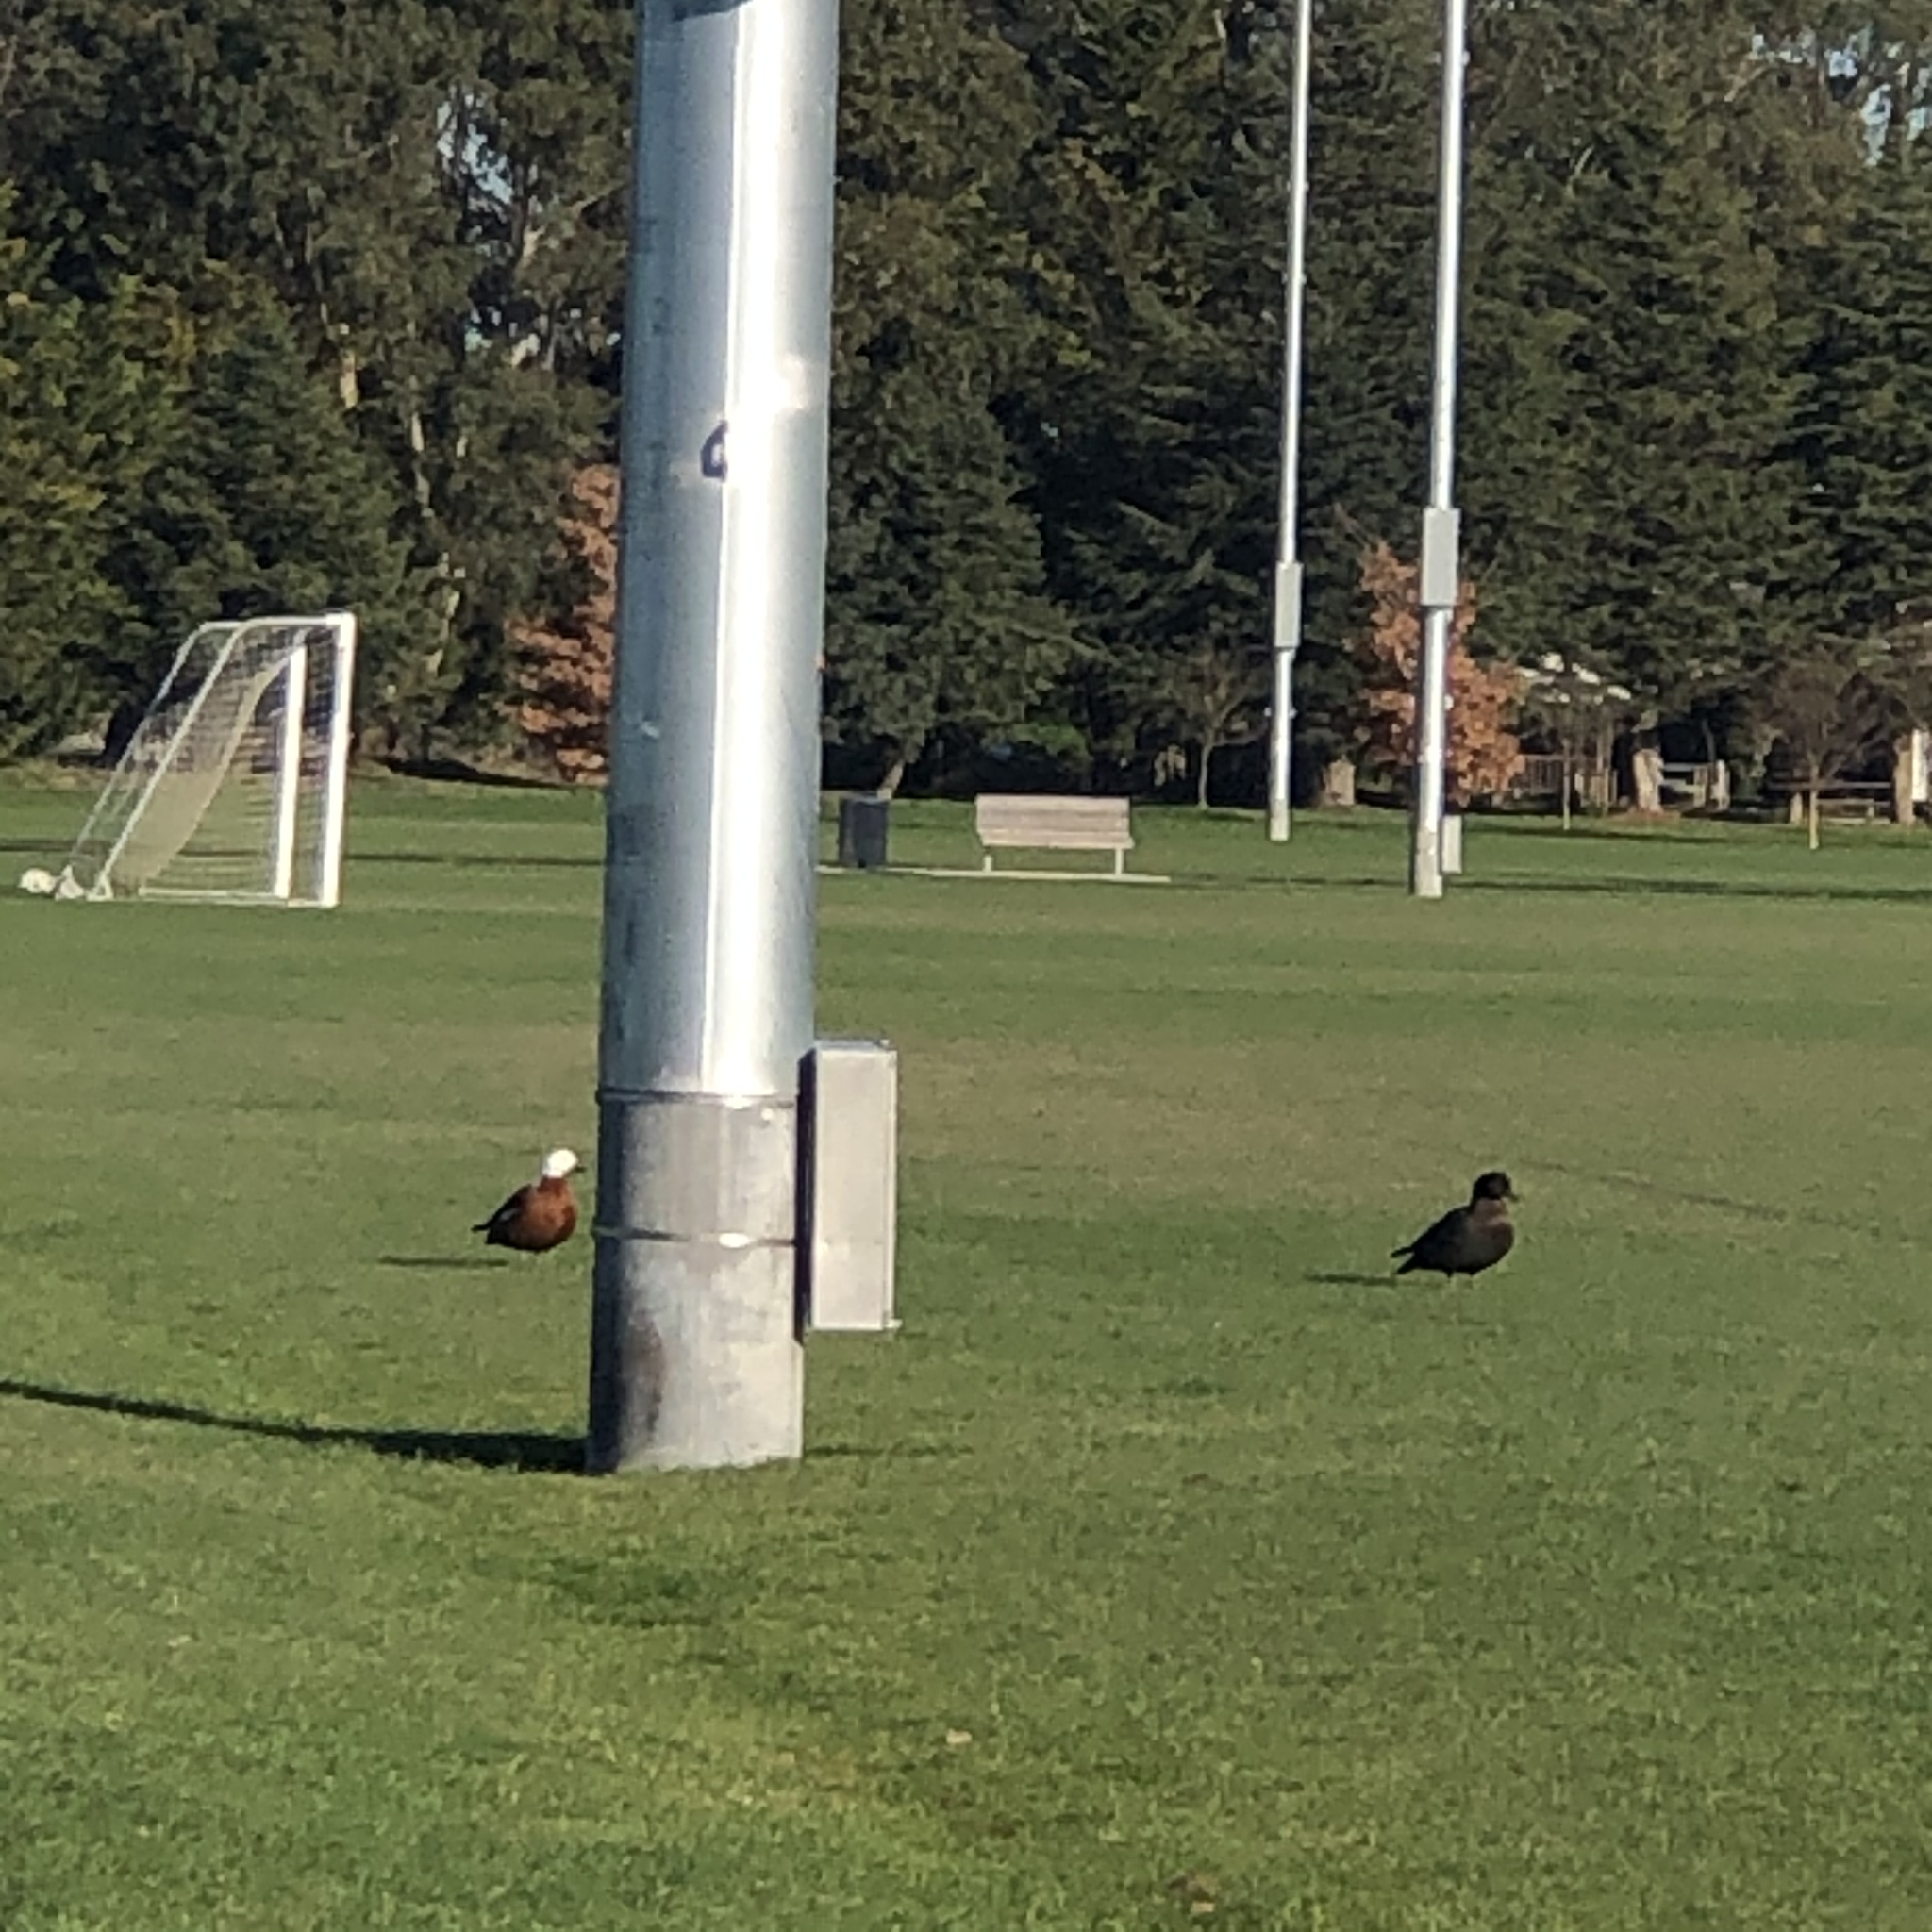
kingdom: Animalia
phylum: Chordata
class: Aves
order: Anseriformes
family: Anatidae
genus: Tadorna
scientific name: Tadorna variegata
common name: Paradise shelduck
